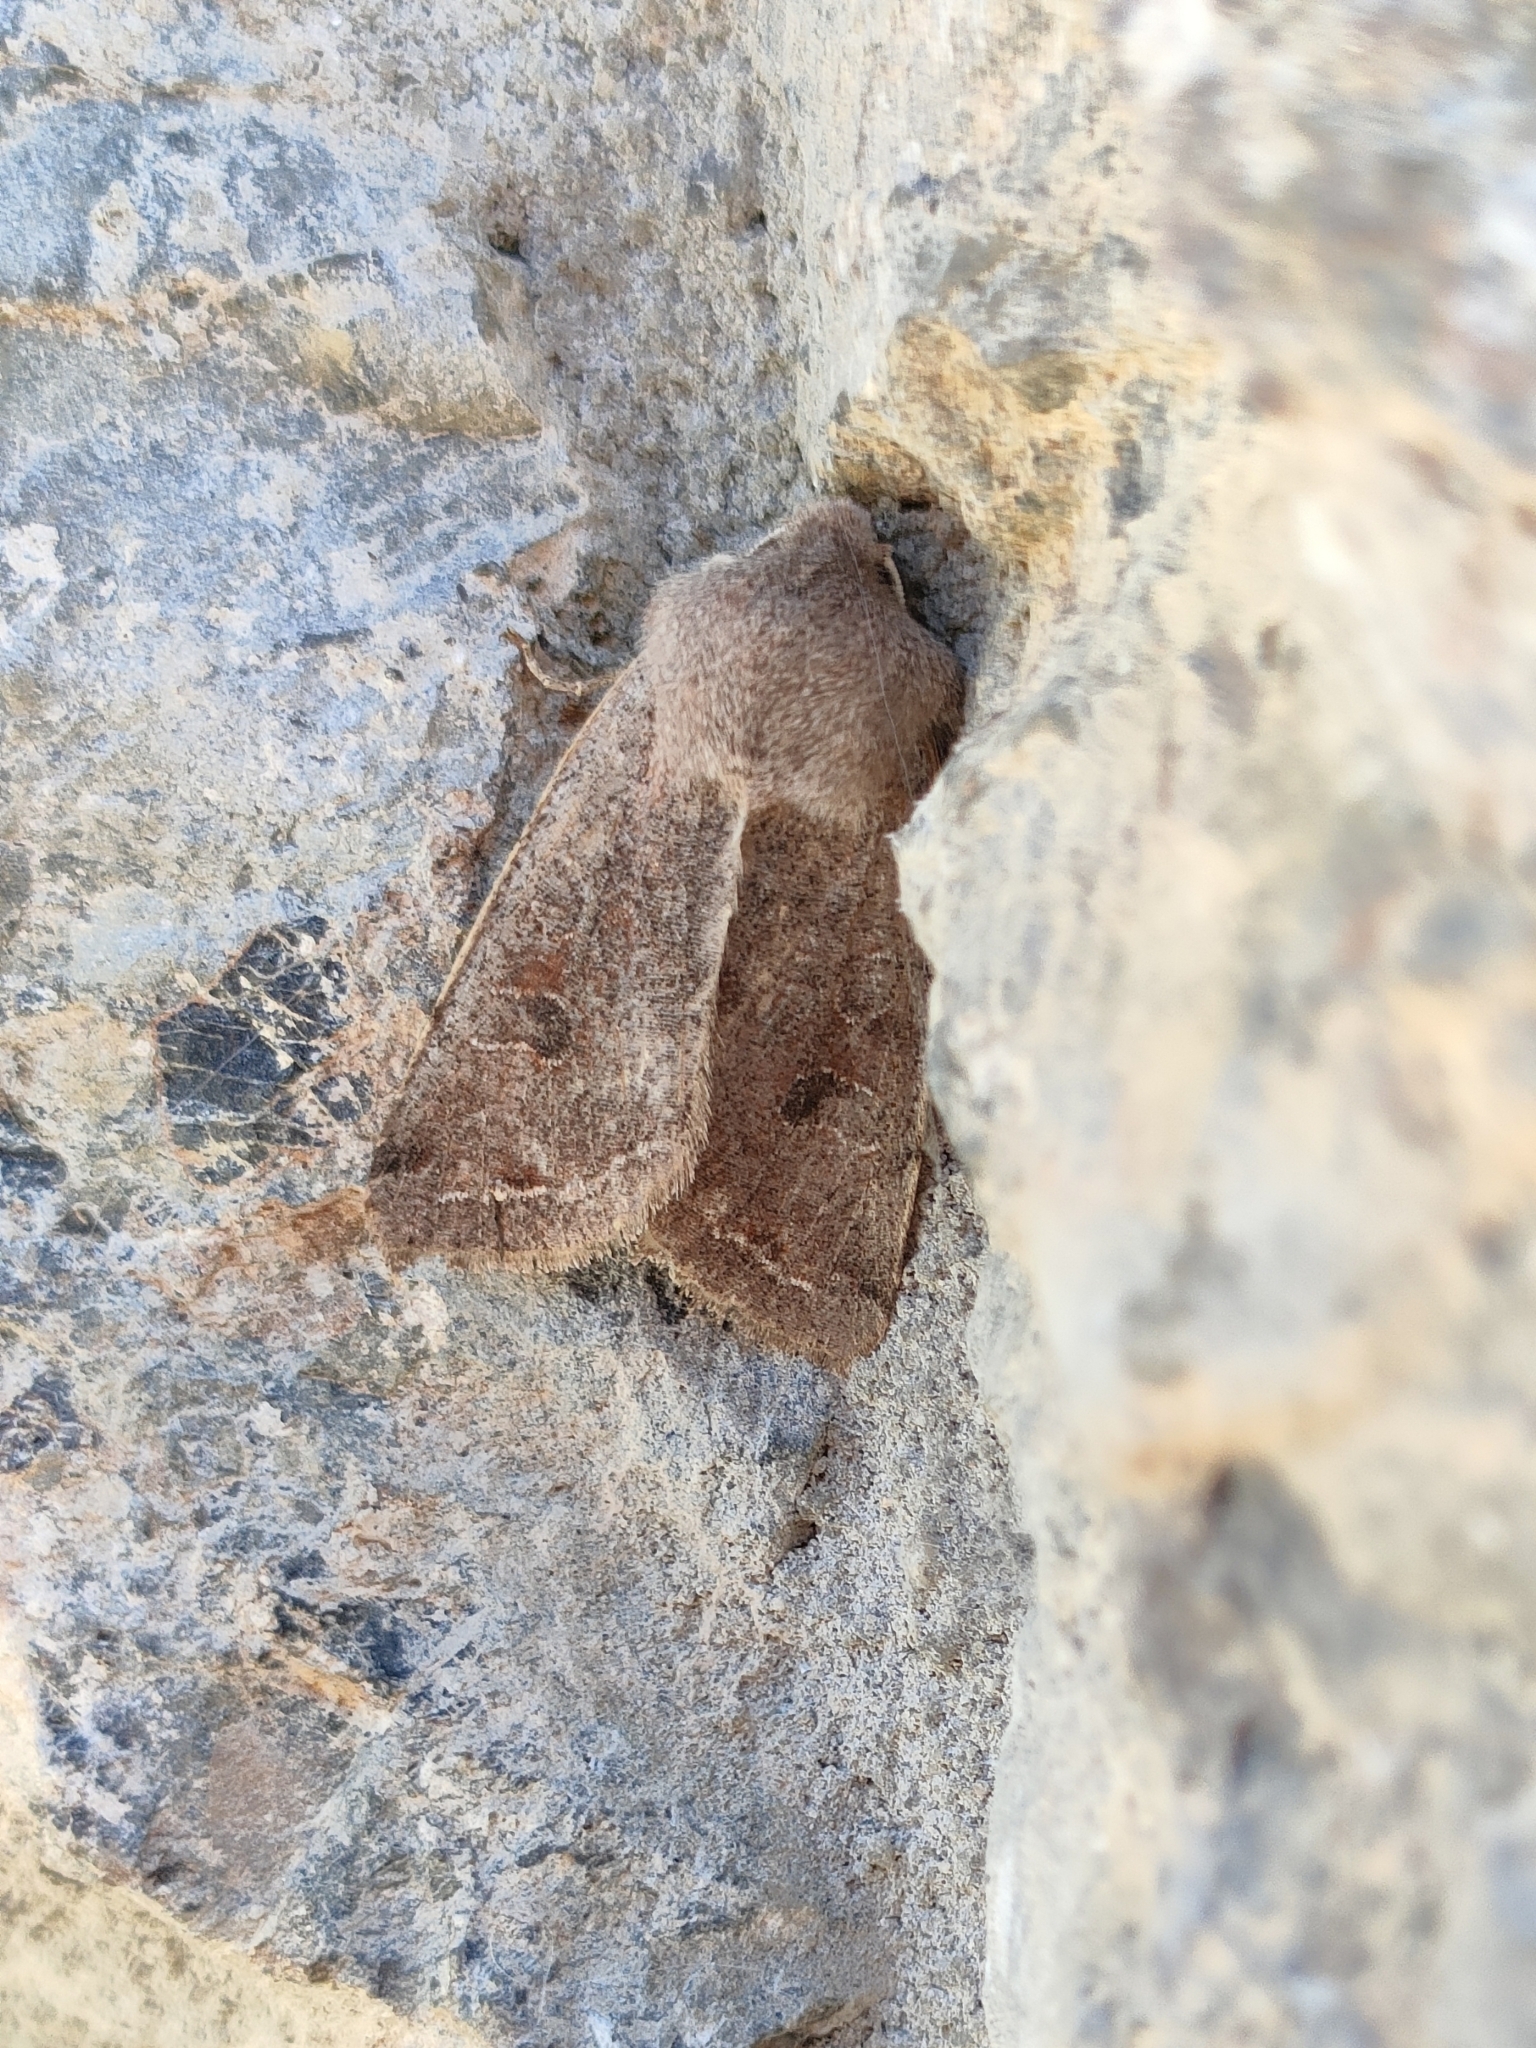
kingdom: Animalia
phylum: Arthropoda
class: Insecta
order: Lepidoptera
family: Noctuidae
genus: Orthosia
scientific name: Orthosia incerta
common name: Clouded drab
